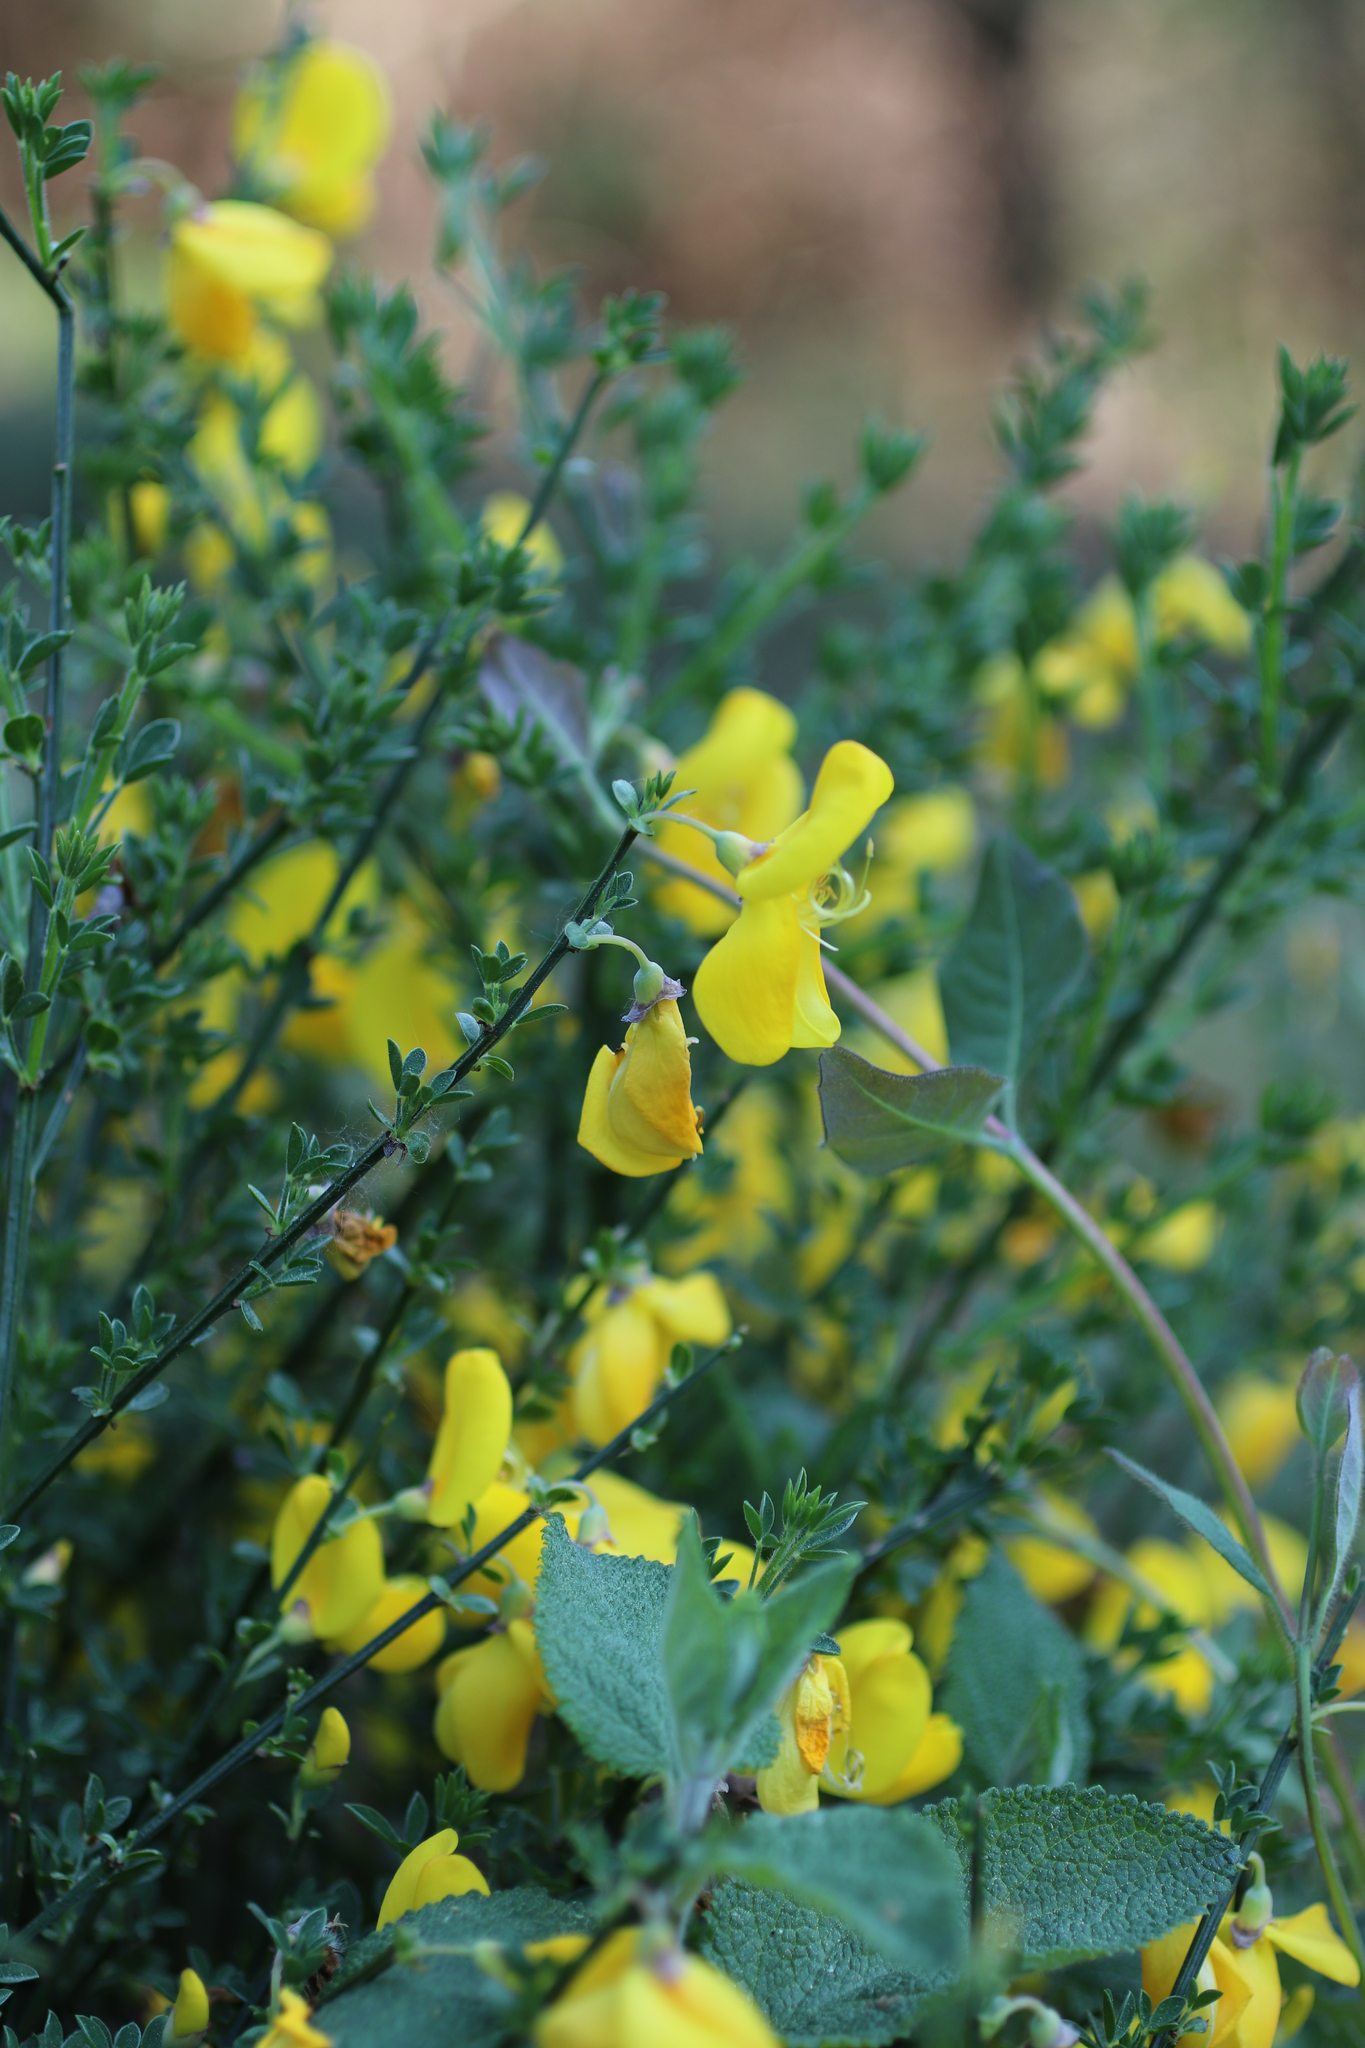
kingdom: Plantae
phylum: Tracheophyta
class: Magnoliopsida
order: Fabales
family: Fabaceae
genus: Cytisus
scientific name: Cytisus scoparius
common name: Scotch broom
